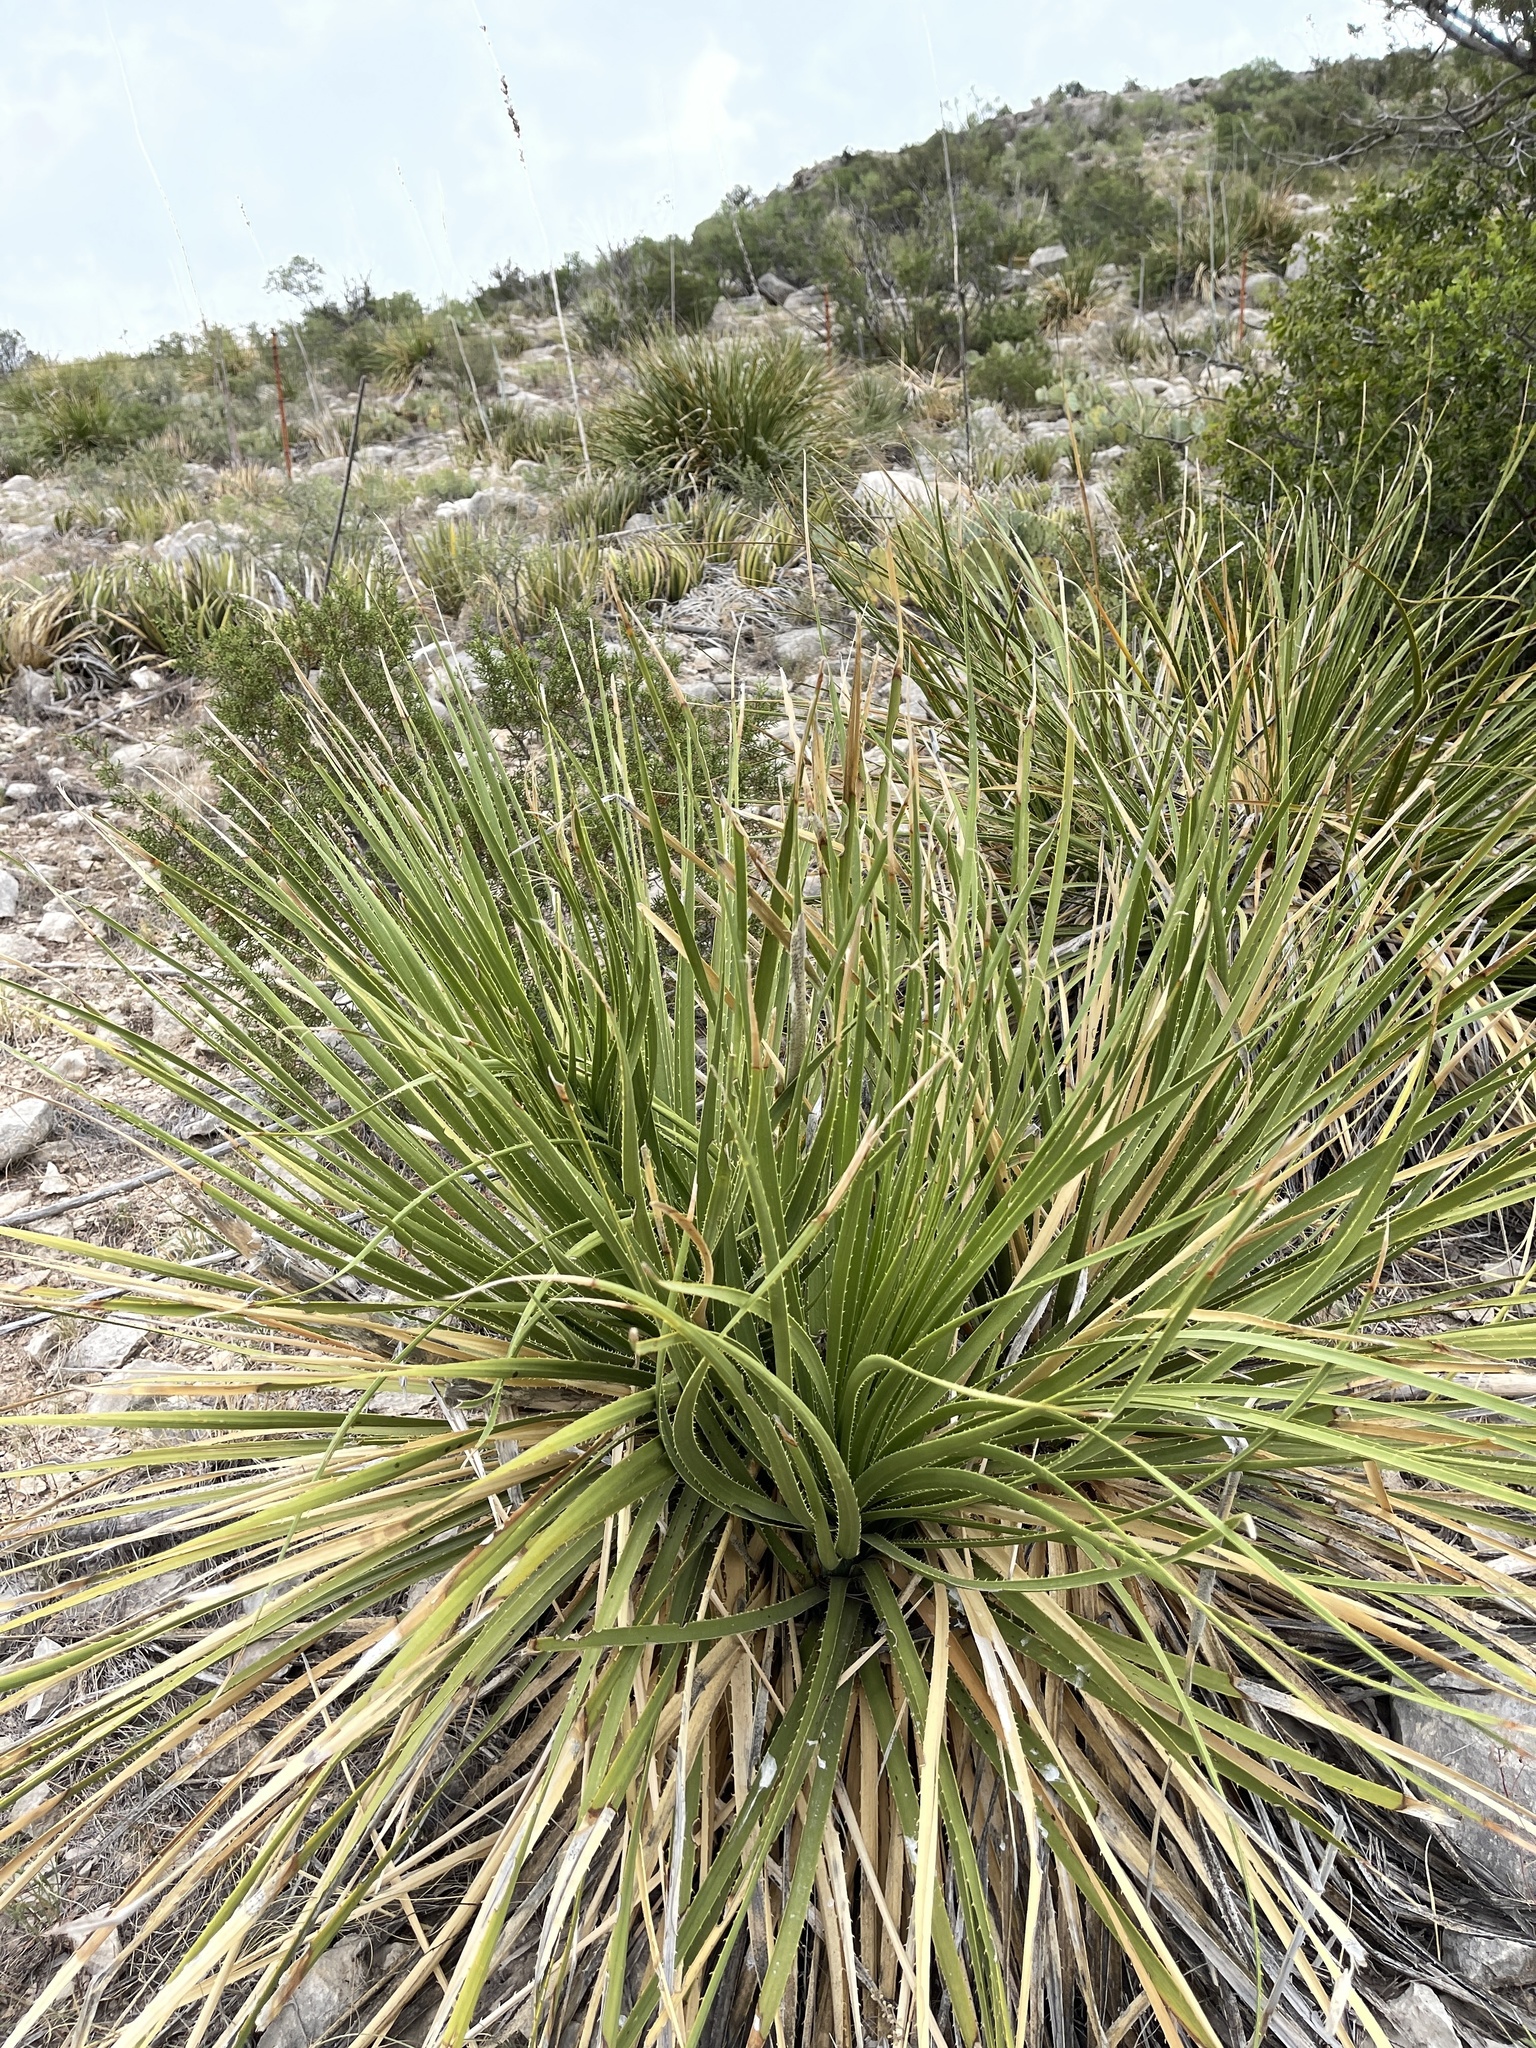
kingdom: Plantae
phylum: Tracheophyta
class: Liliopsida
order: Asparagales
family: Asparagaceae
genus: Dasylirion
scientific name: Dasylirion texanum
